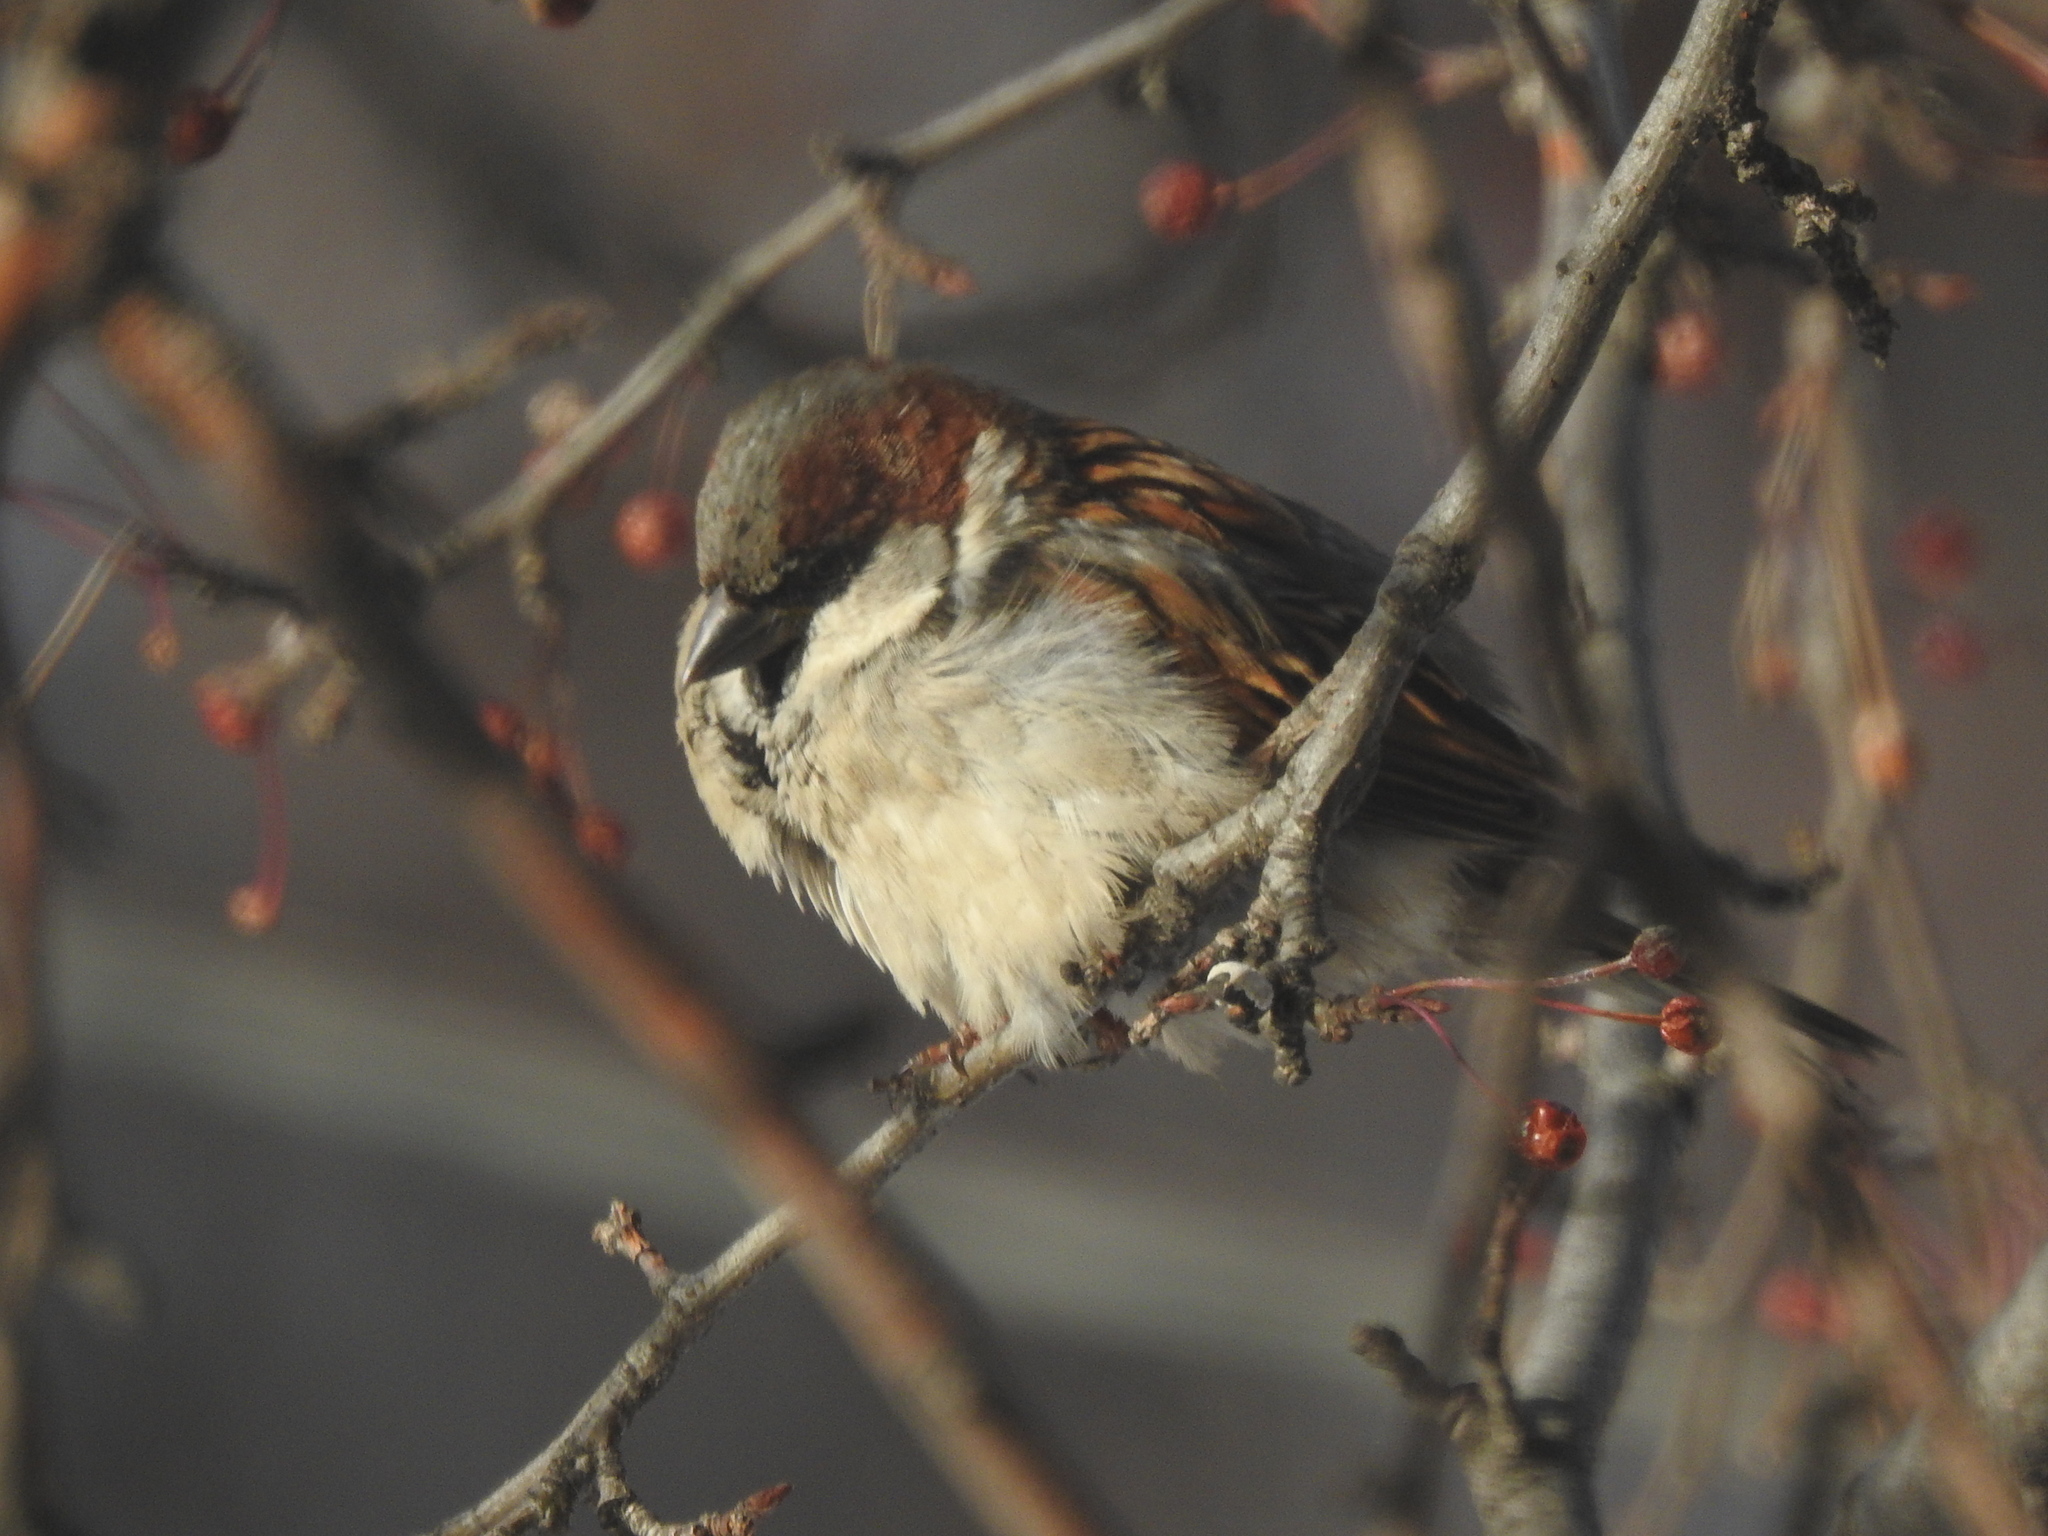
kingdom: Animalia
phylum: Chordata
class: Aves
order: Passeriformes
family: Passeridae
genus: Passer
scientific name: Passer domesticus
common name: House sparrow
